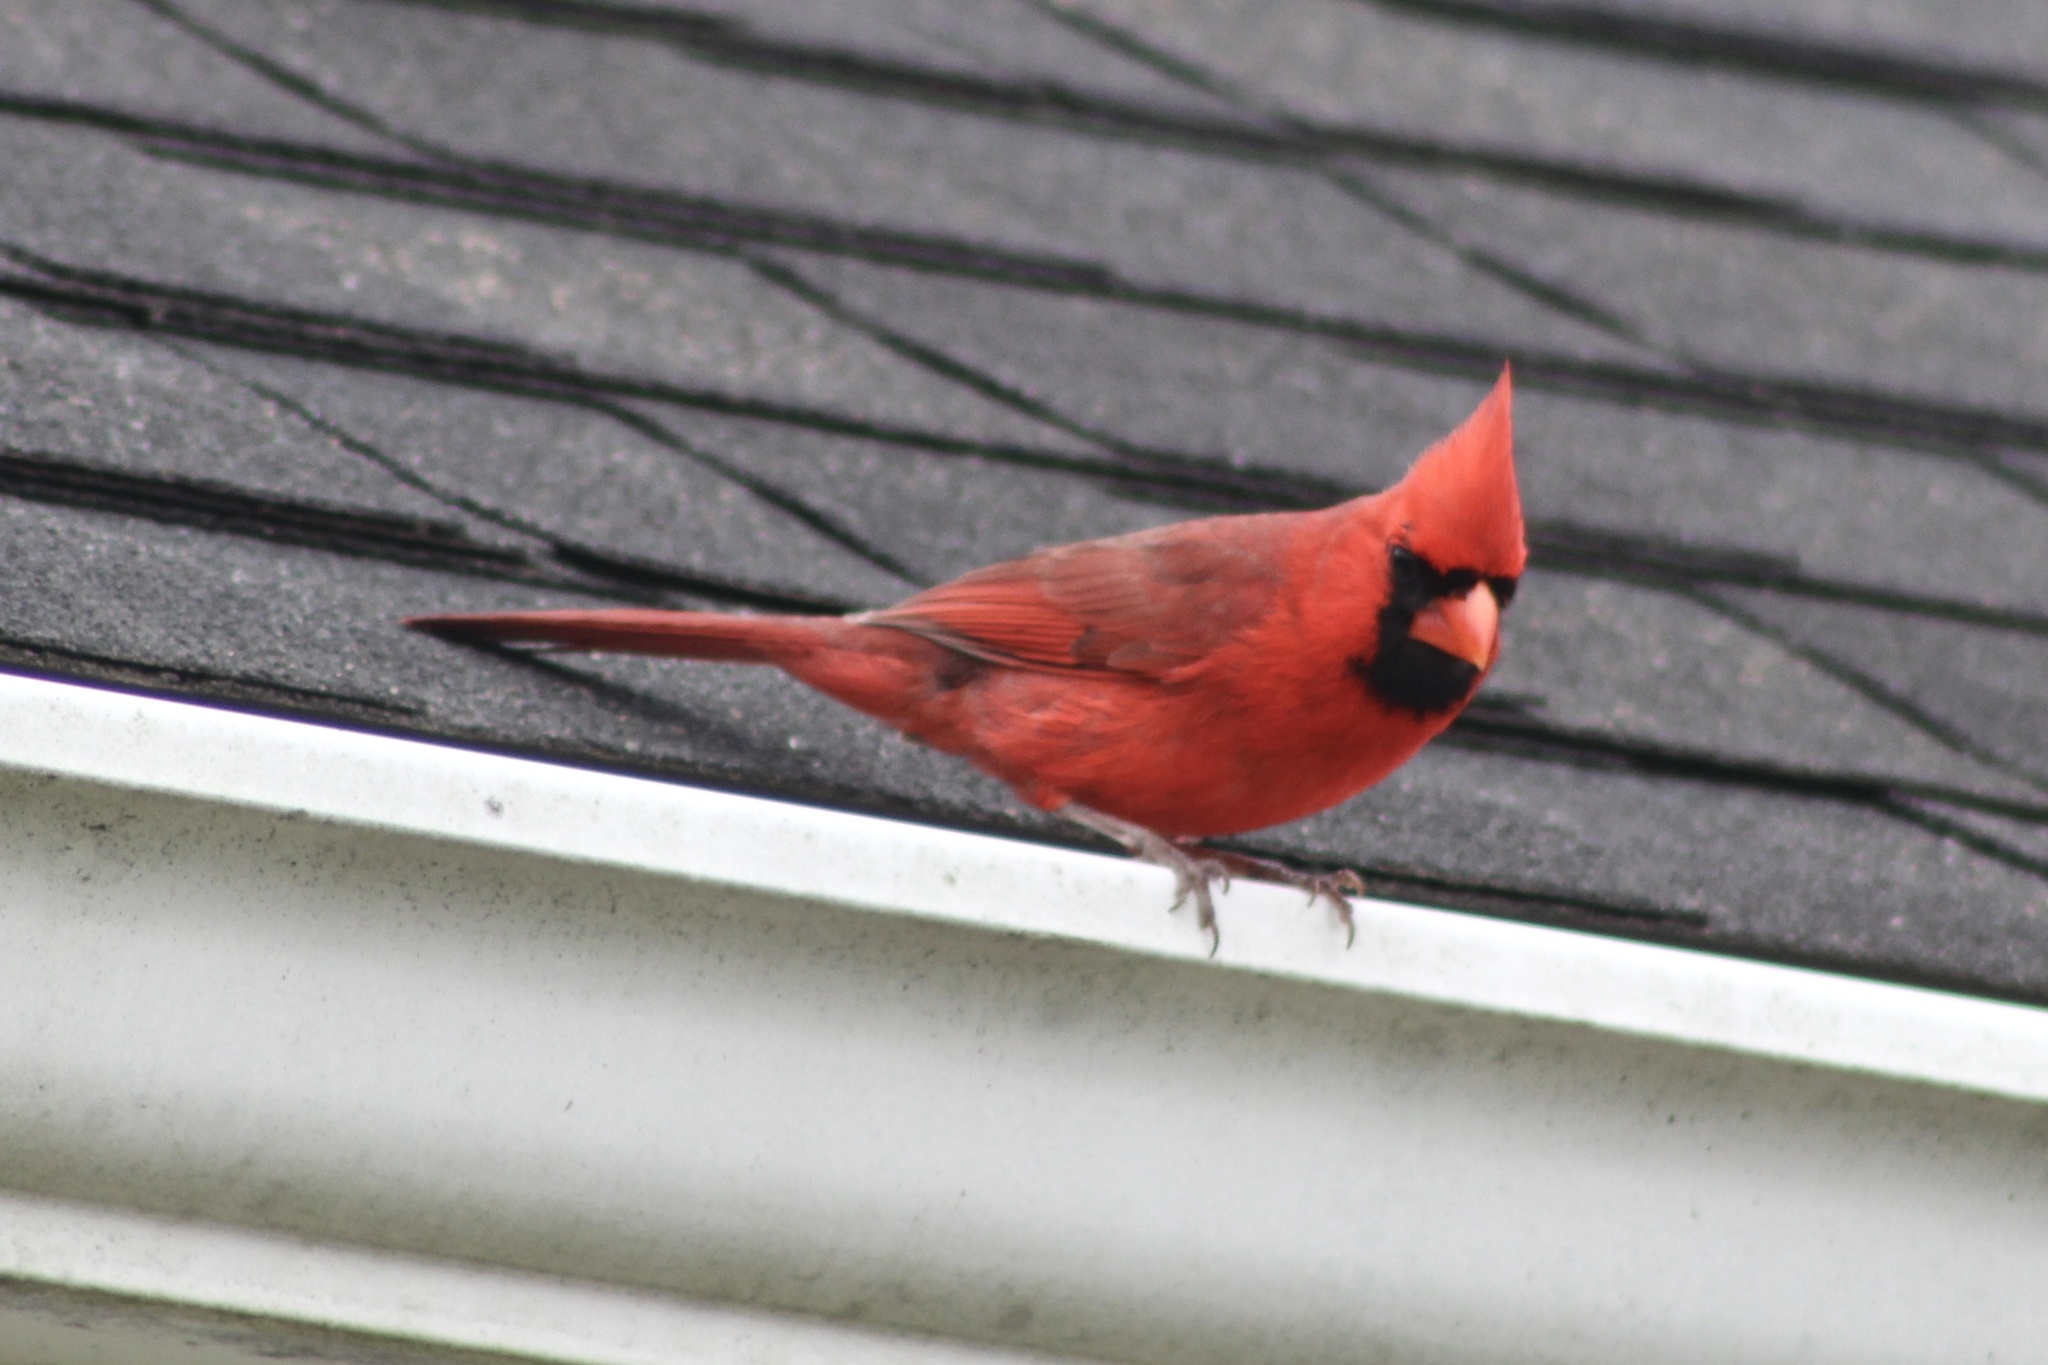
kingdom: Animalia
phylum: Chordata
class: Aves
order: Passeriformes
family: Cardinalidae
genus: Cardinalis
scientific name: Cardinalis cardinalis
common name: Northern cardinal
